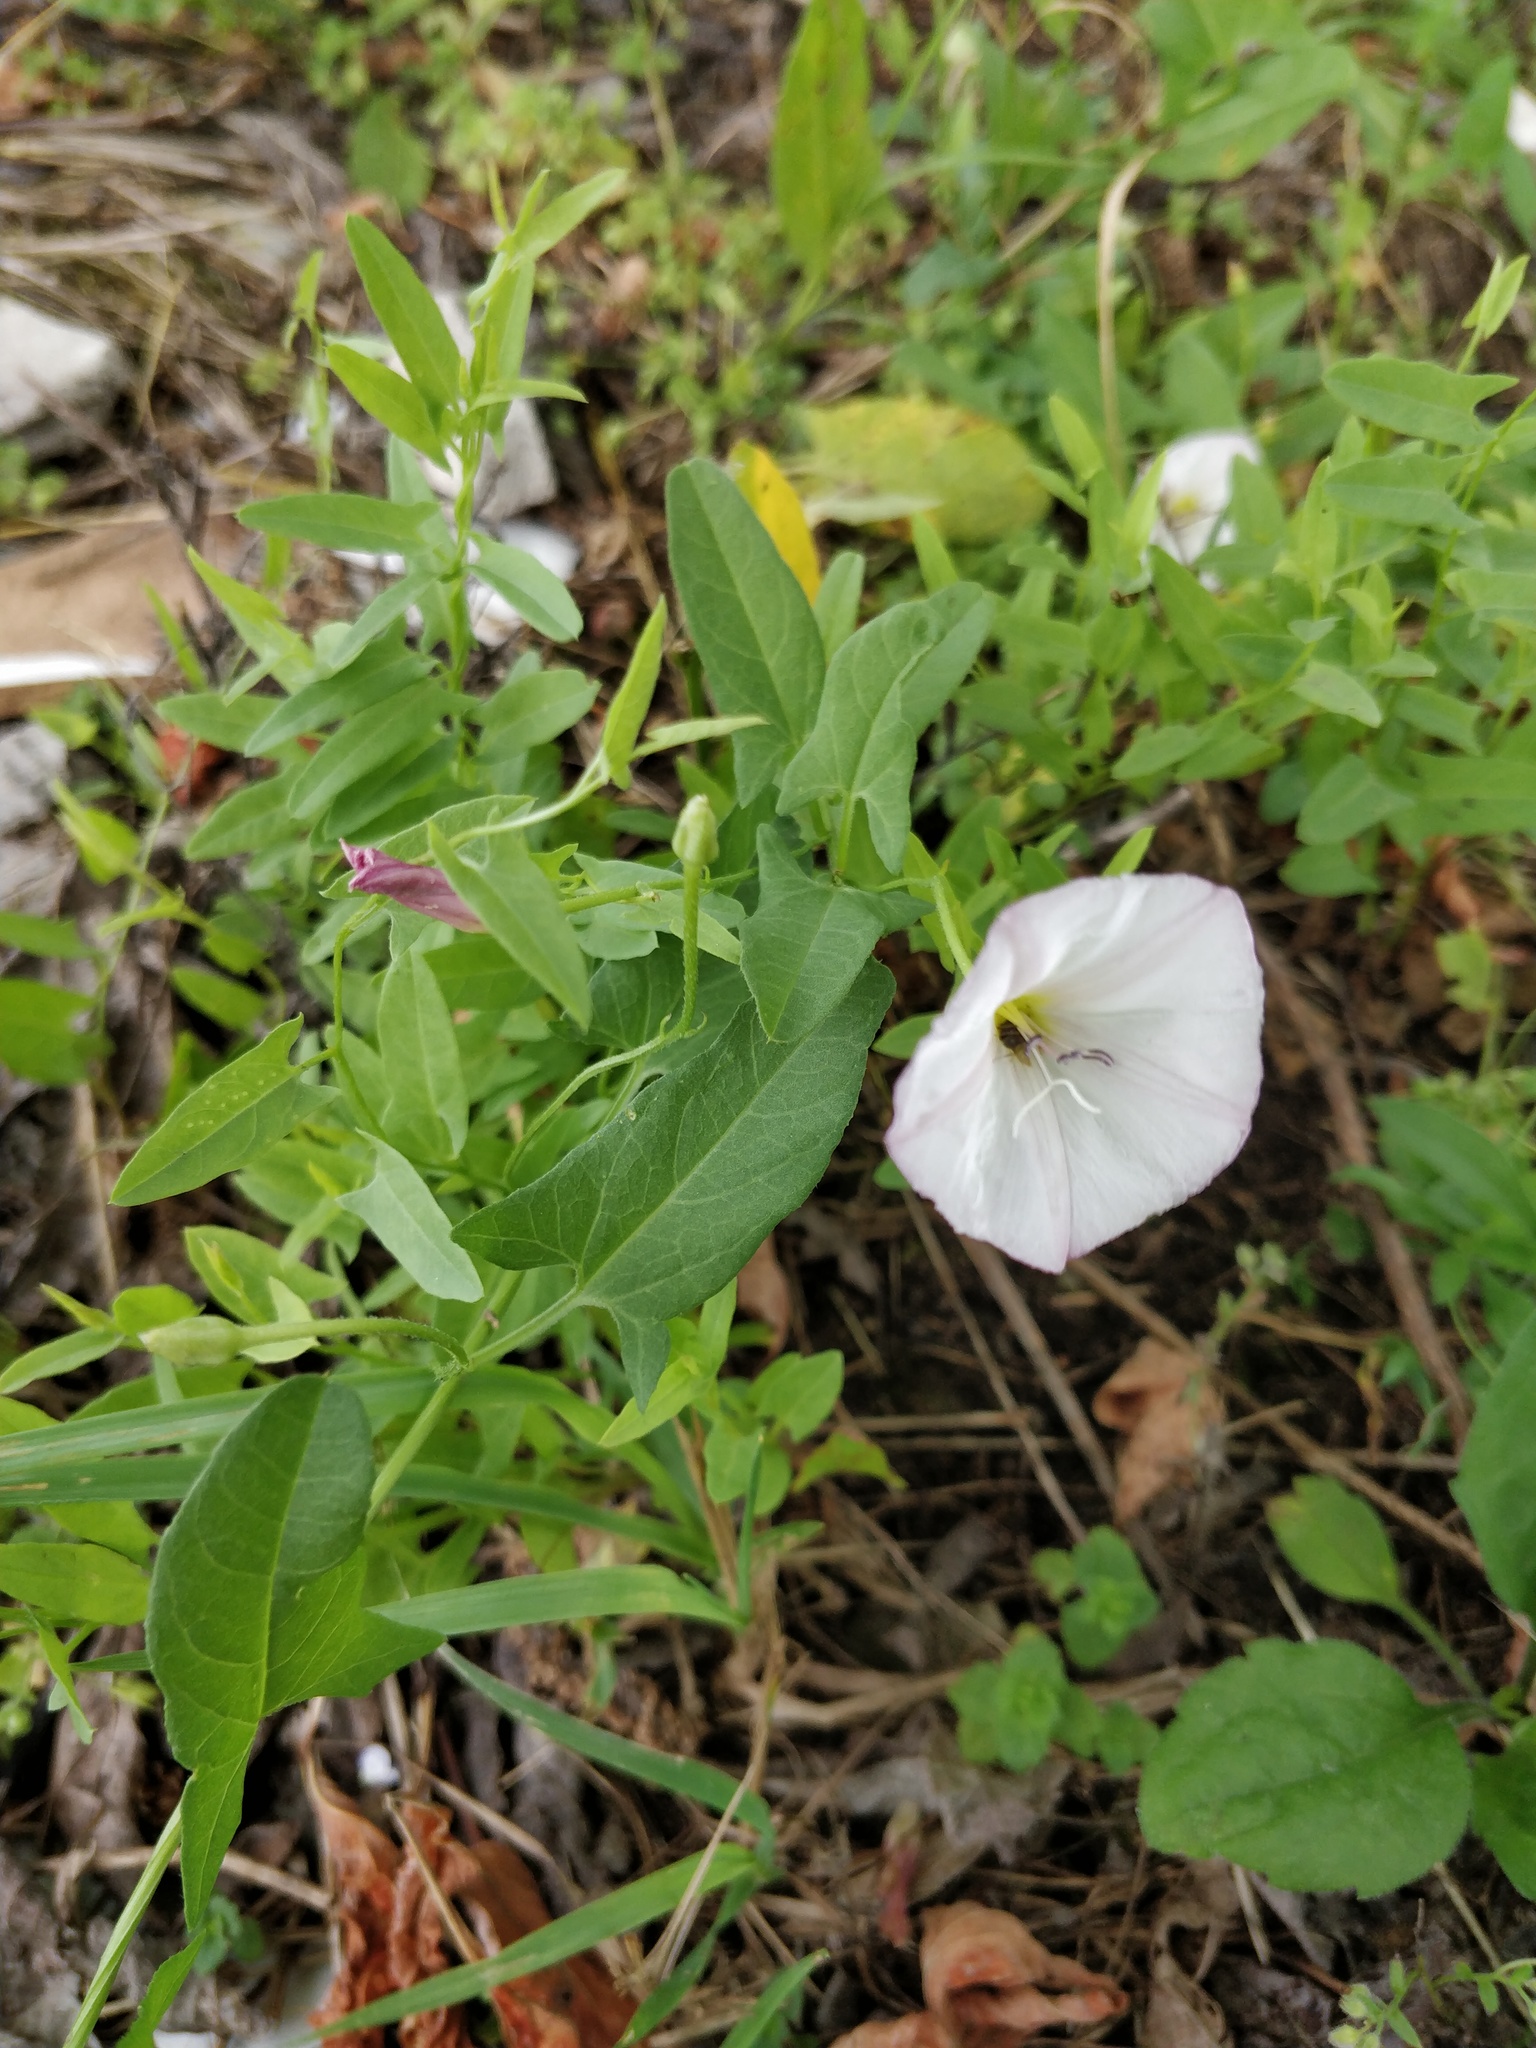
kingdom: Plantae
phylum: Tracheophyta
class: Magnoliopsida
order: Solanales
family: Convolvulaceae
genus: Convolvulus
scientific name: Convolvulus arvensis
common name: Field bindweed
